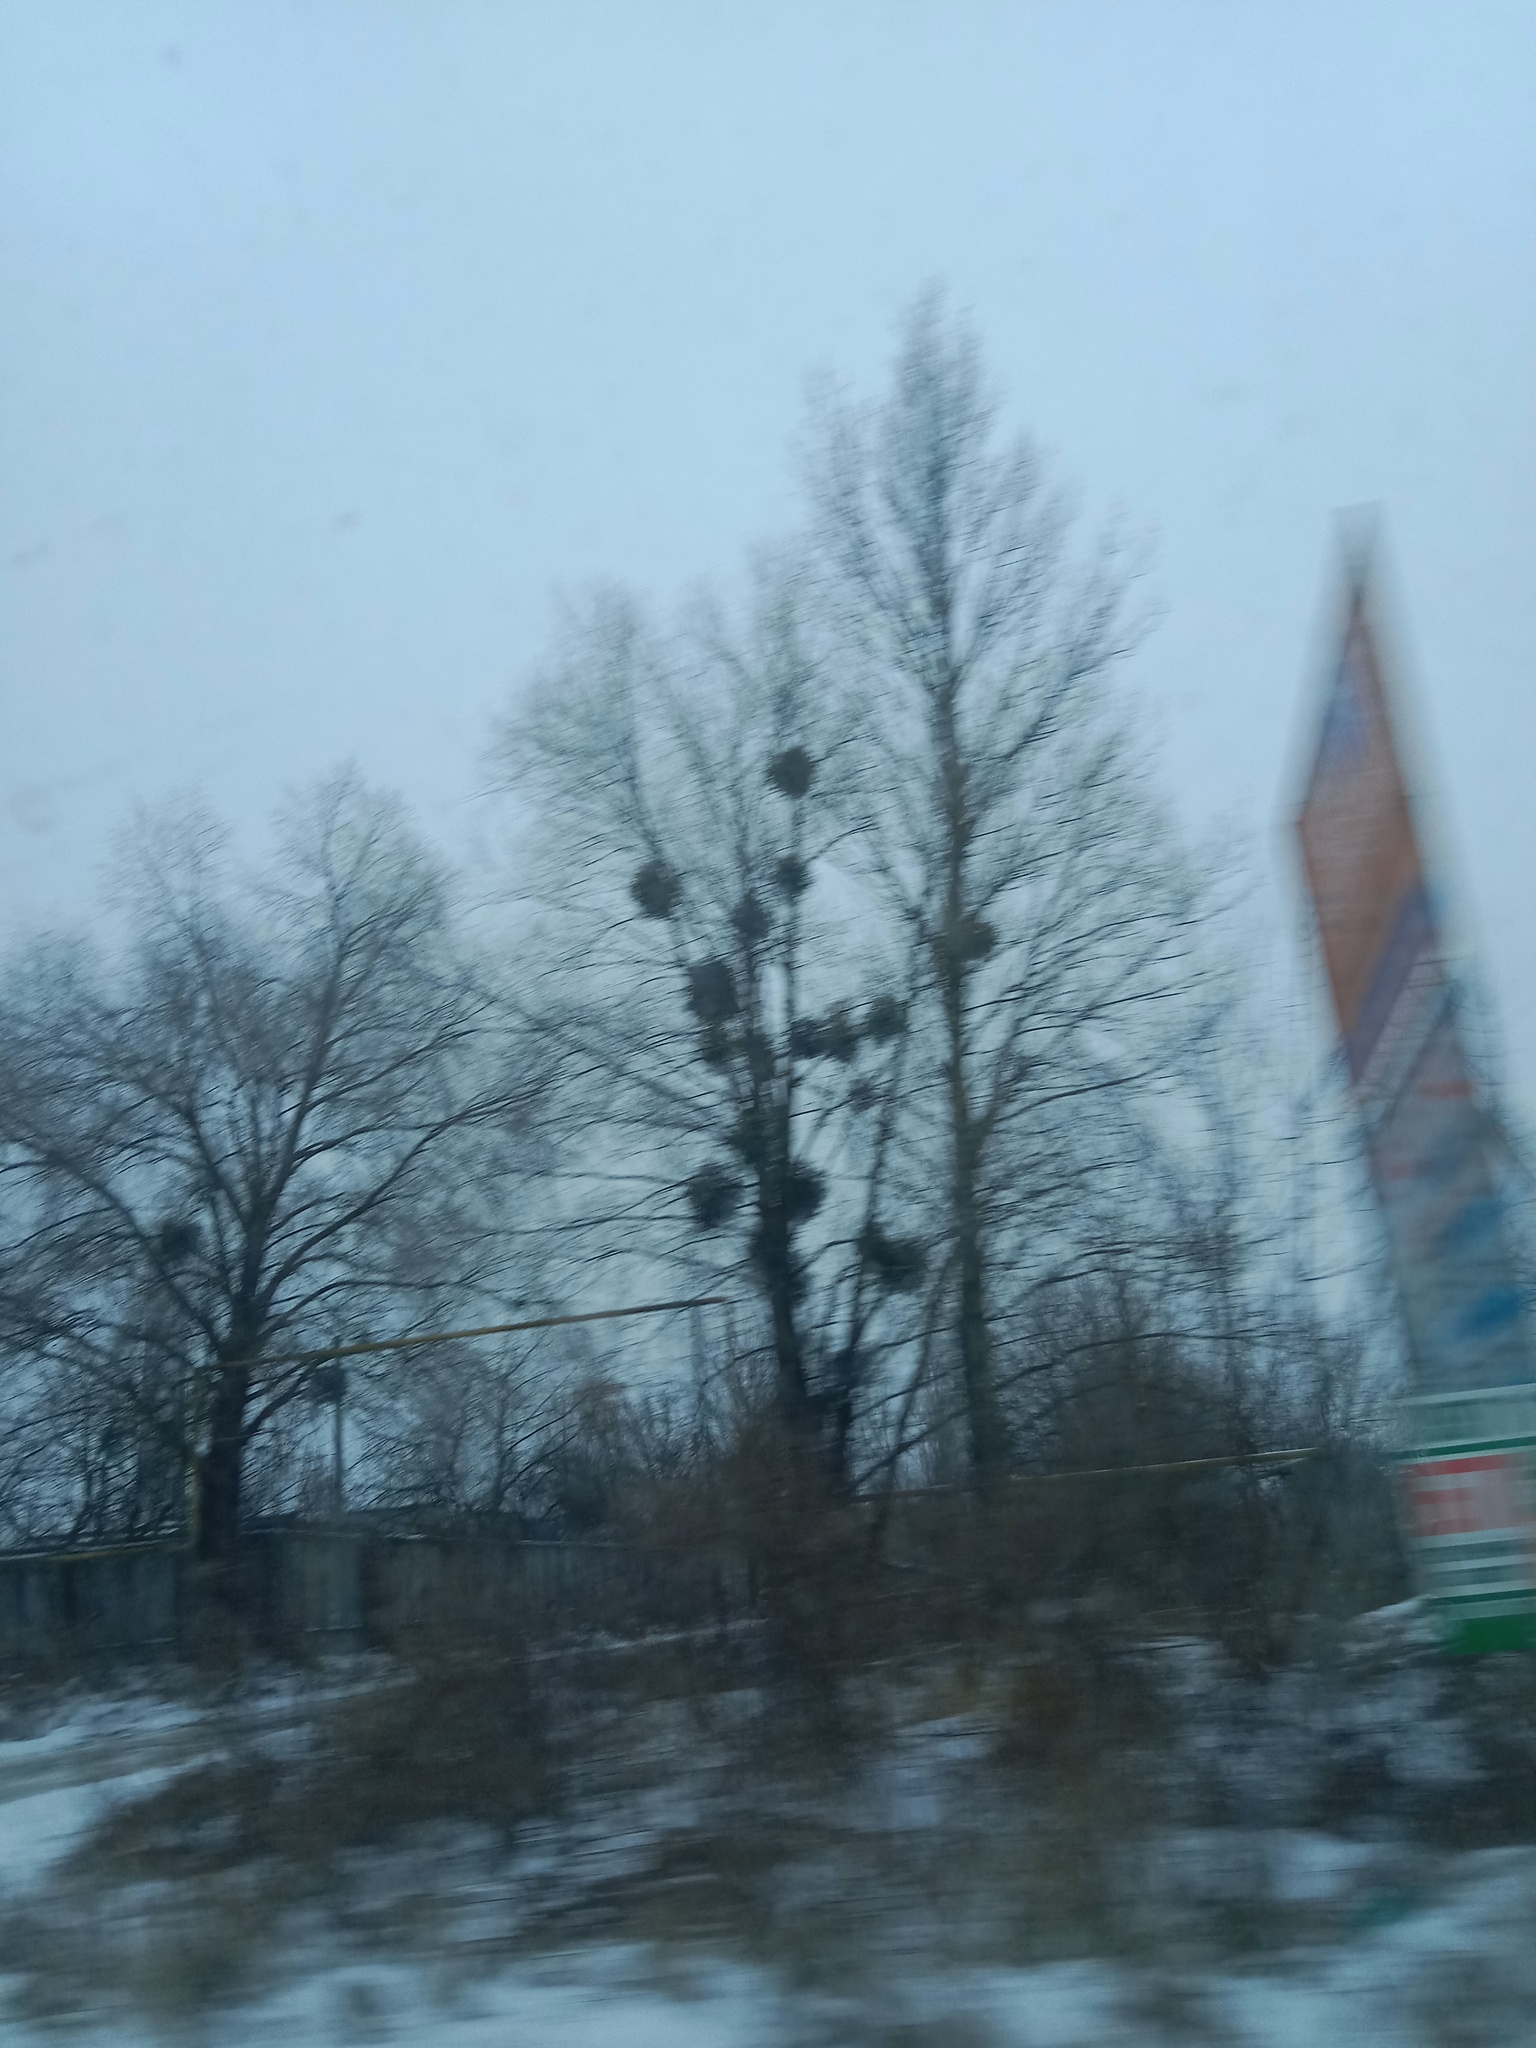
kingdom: Plantae
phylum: Tracheophyta
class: Magnoliopsida
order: Santalales
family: Viscaceae
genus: Viscum
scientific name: Viscum album
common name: Mistletoe
